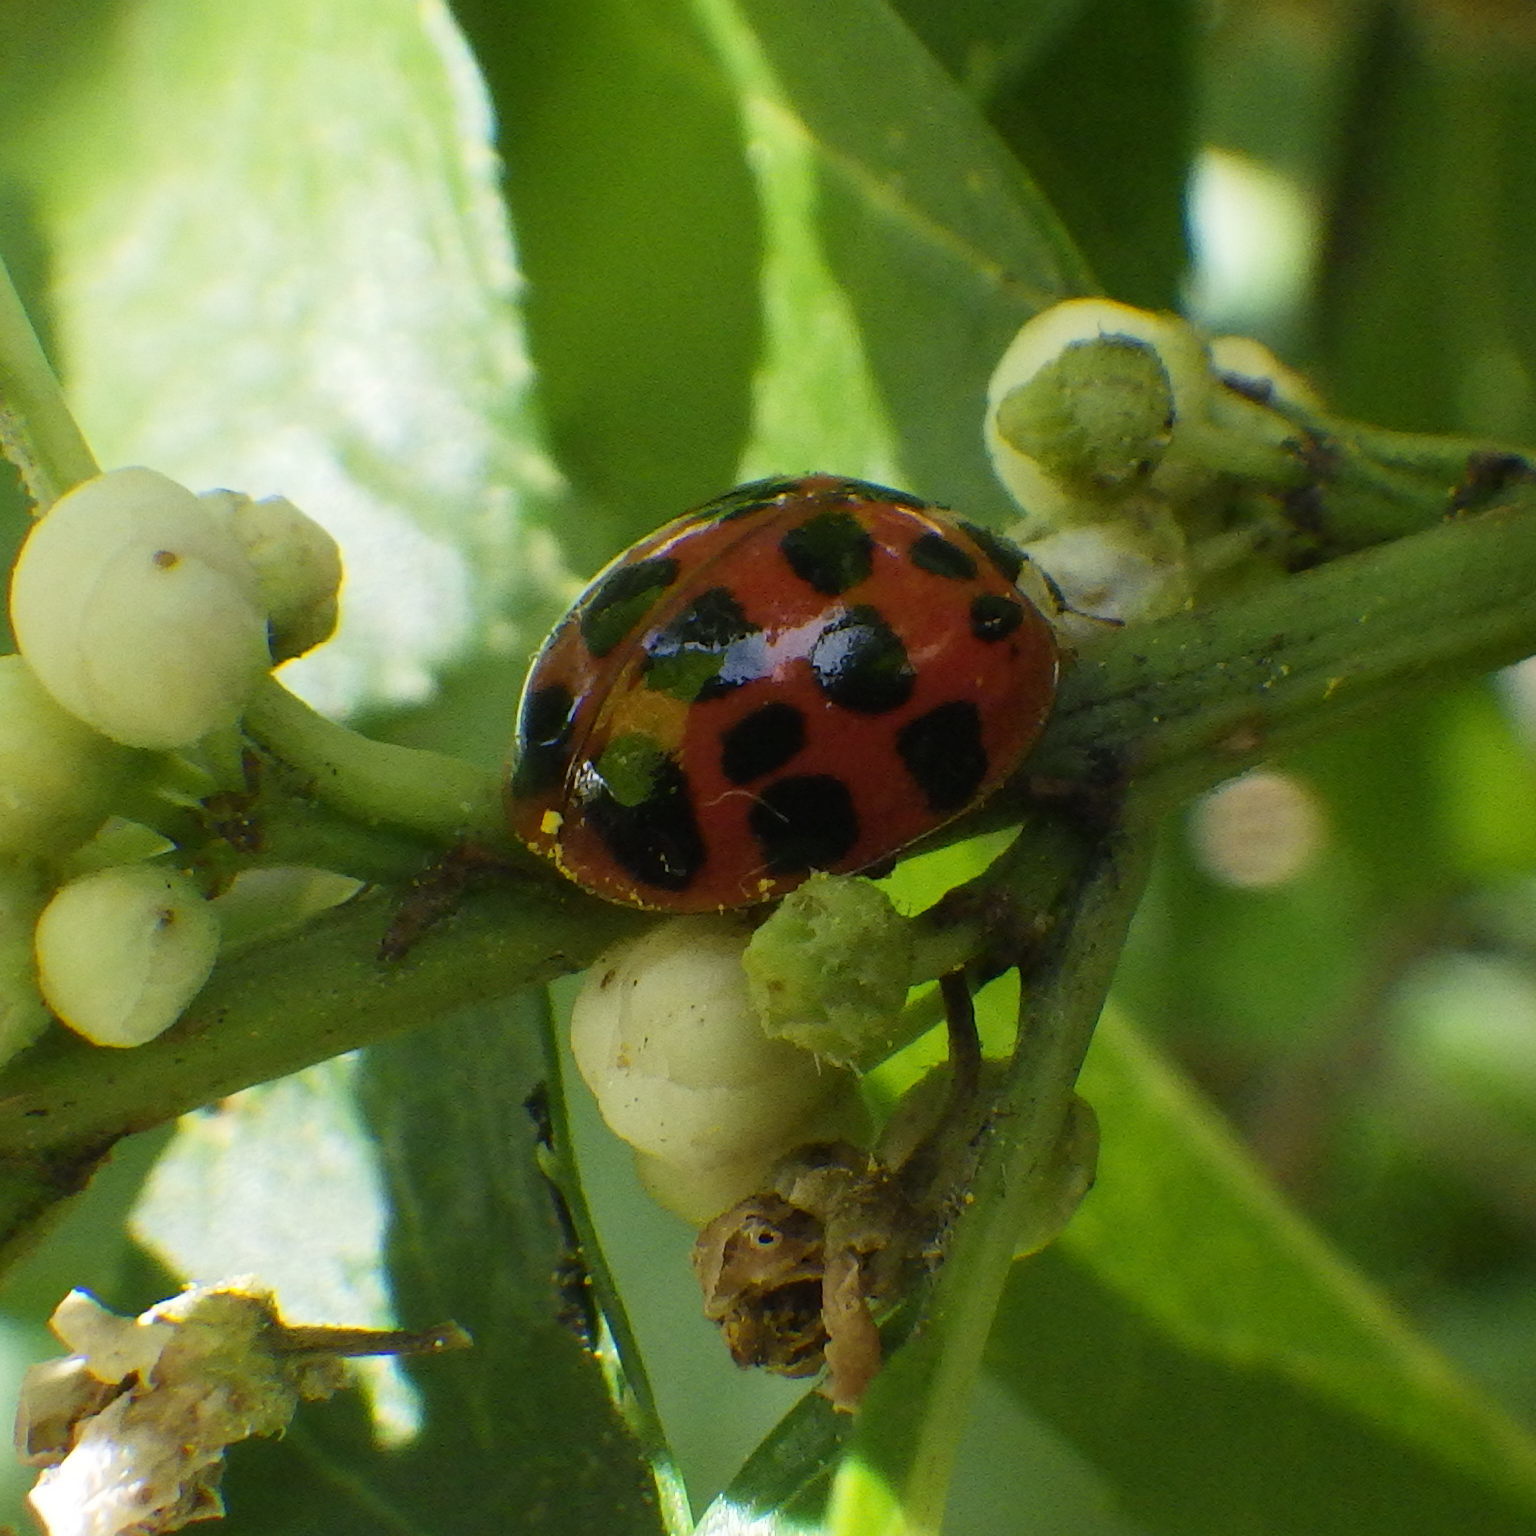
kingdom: Animalia
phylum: Arthropoda
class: Insecta
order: Coleoptera
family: Coccinellidae
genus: Harmonia
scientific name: Harmonia axyridis
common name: Harlequin ladybird
